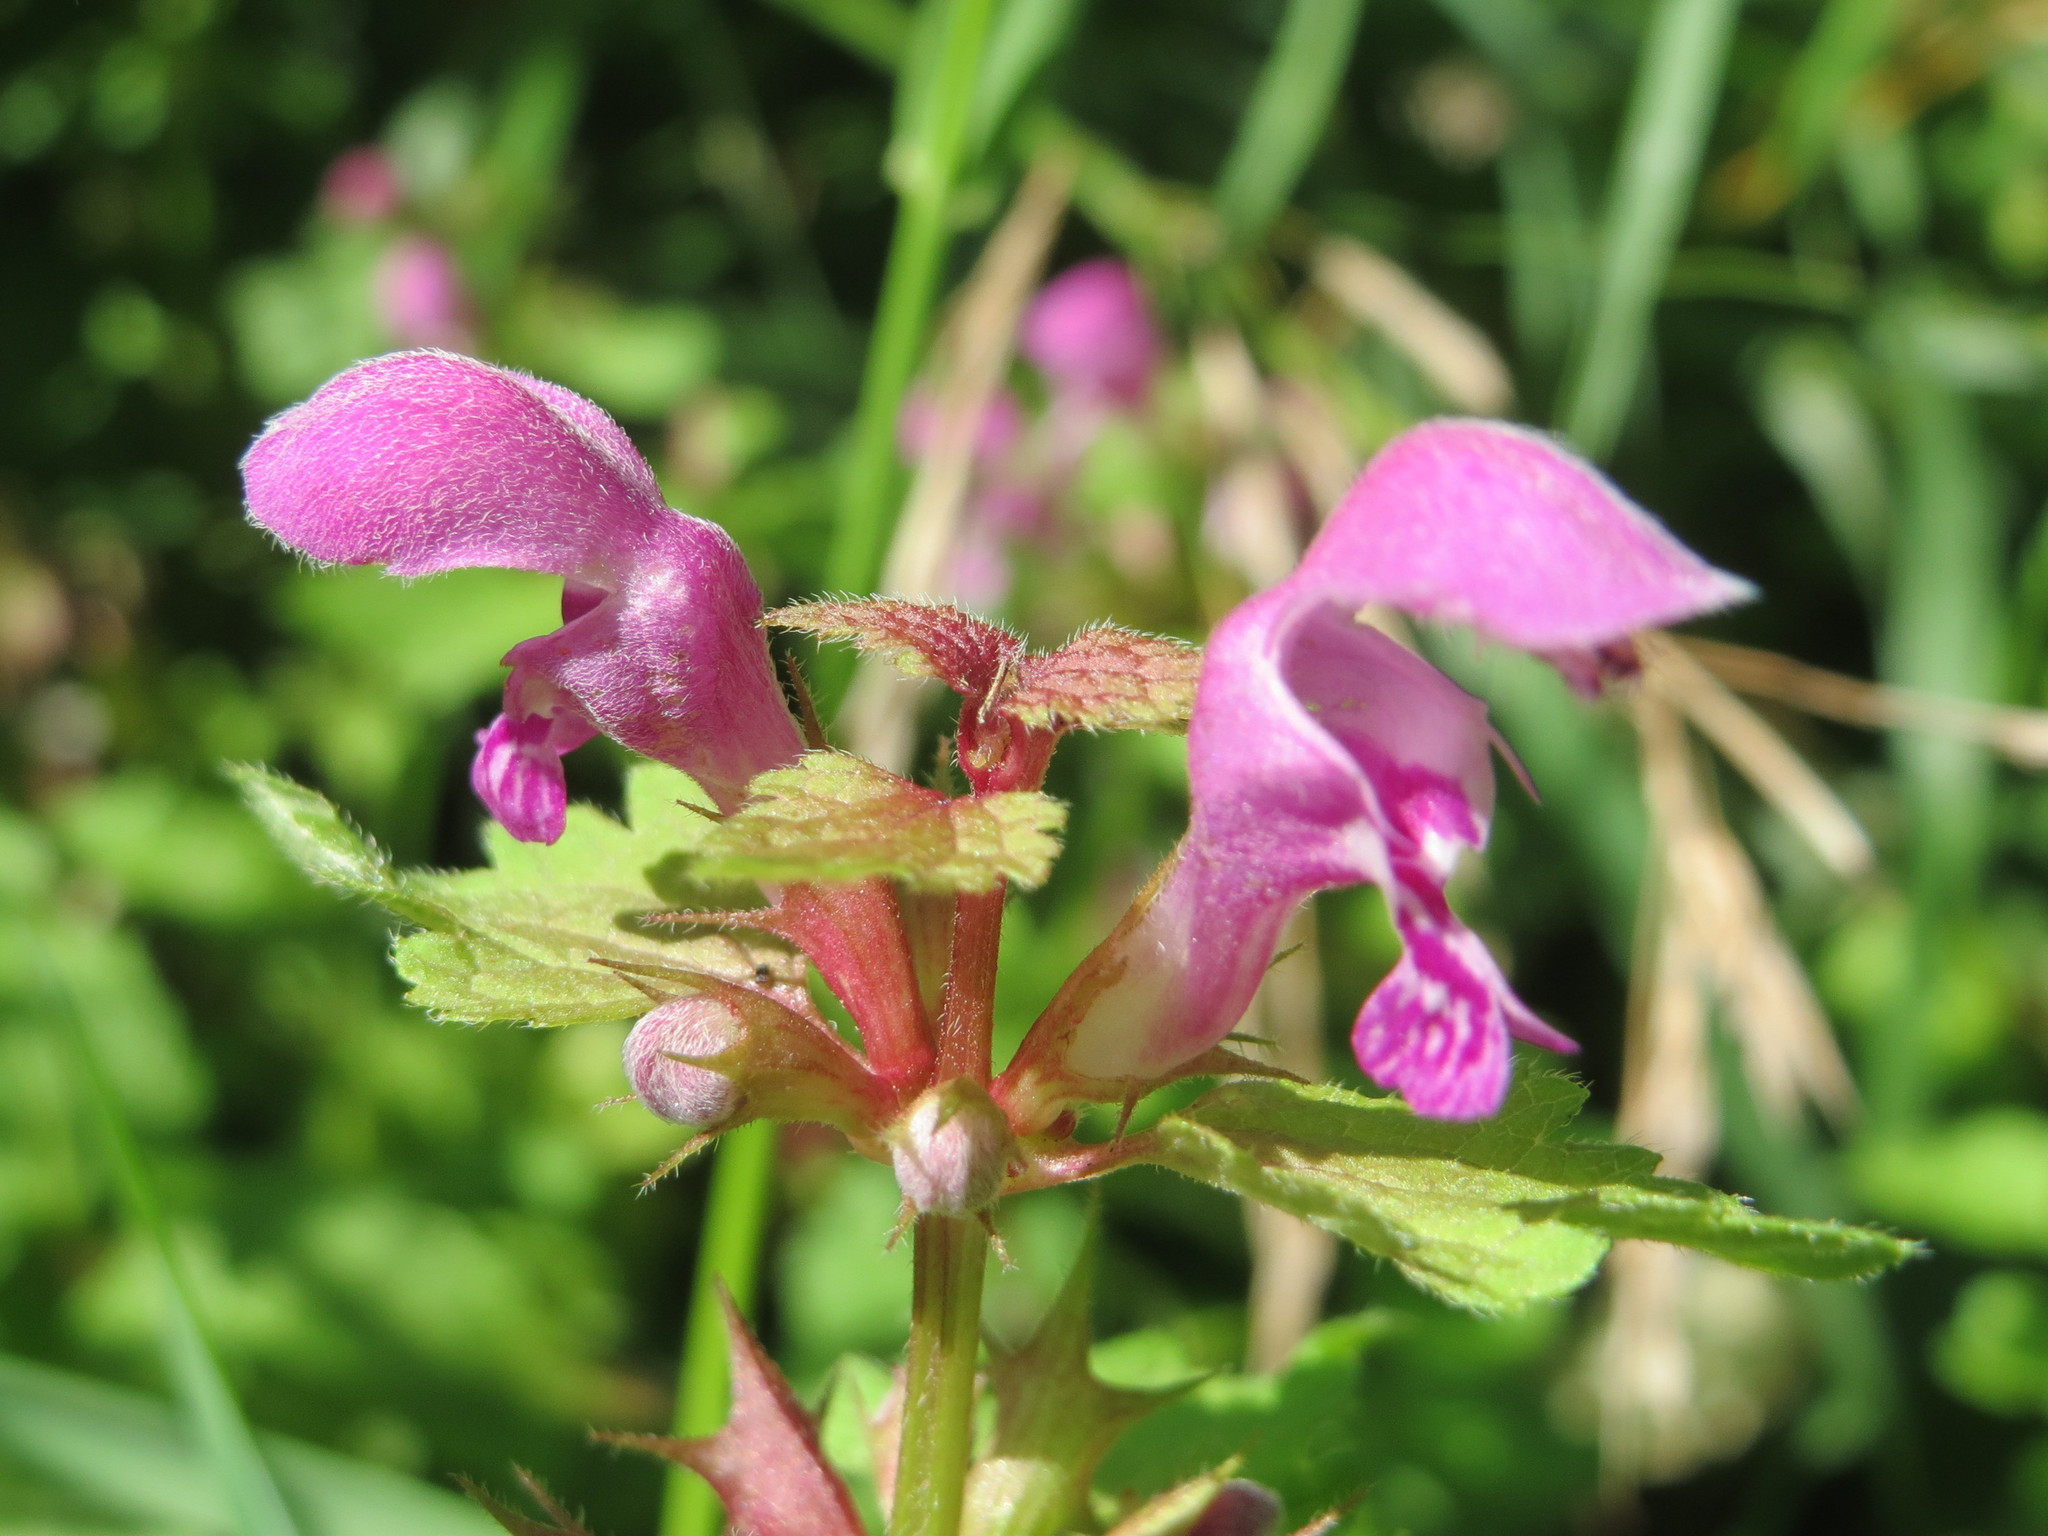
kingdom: Plantae
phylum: Tracheophyta
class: Magnoliopsida
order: Lamiales
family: Lamiaceae
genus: Lamium
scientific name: Lamium maculatum
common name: Spotted dead-nettle
